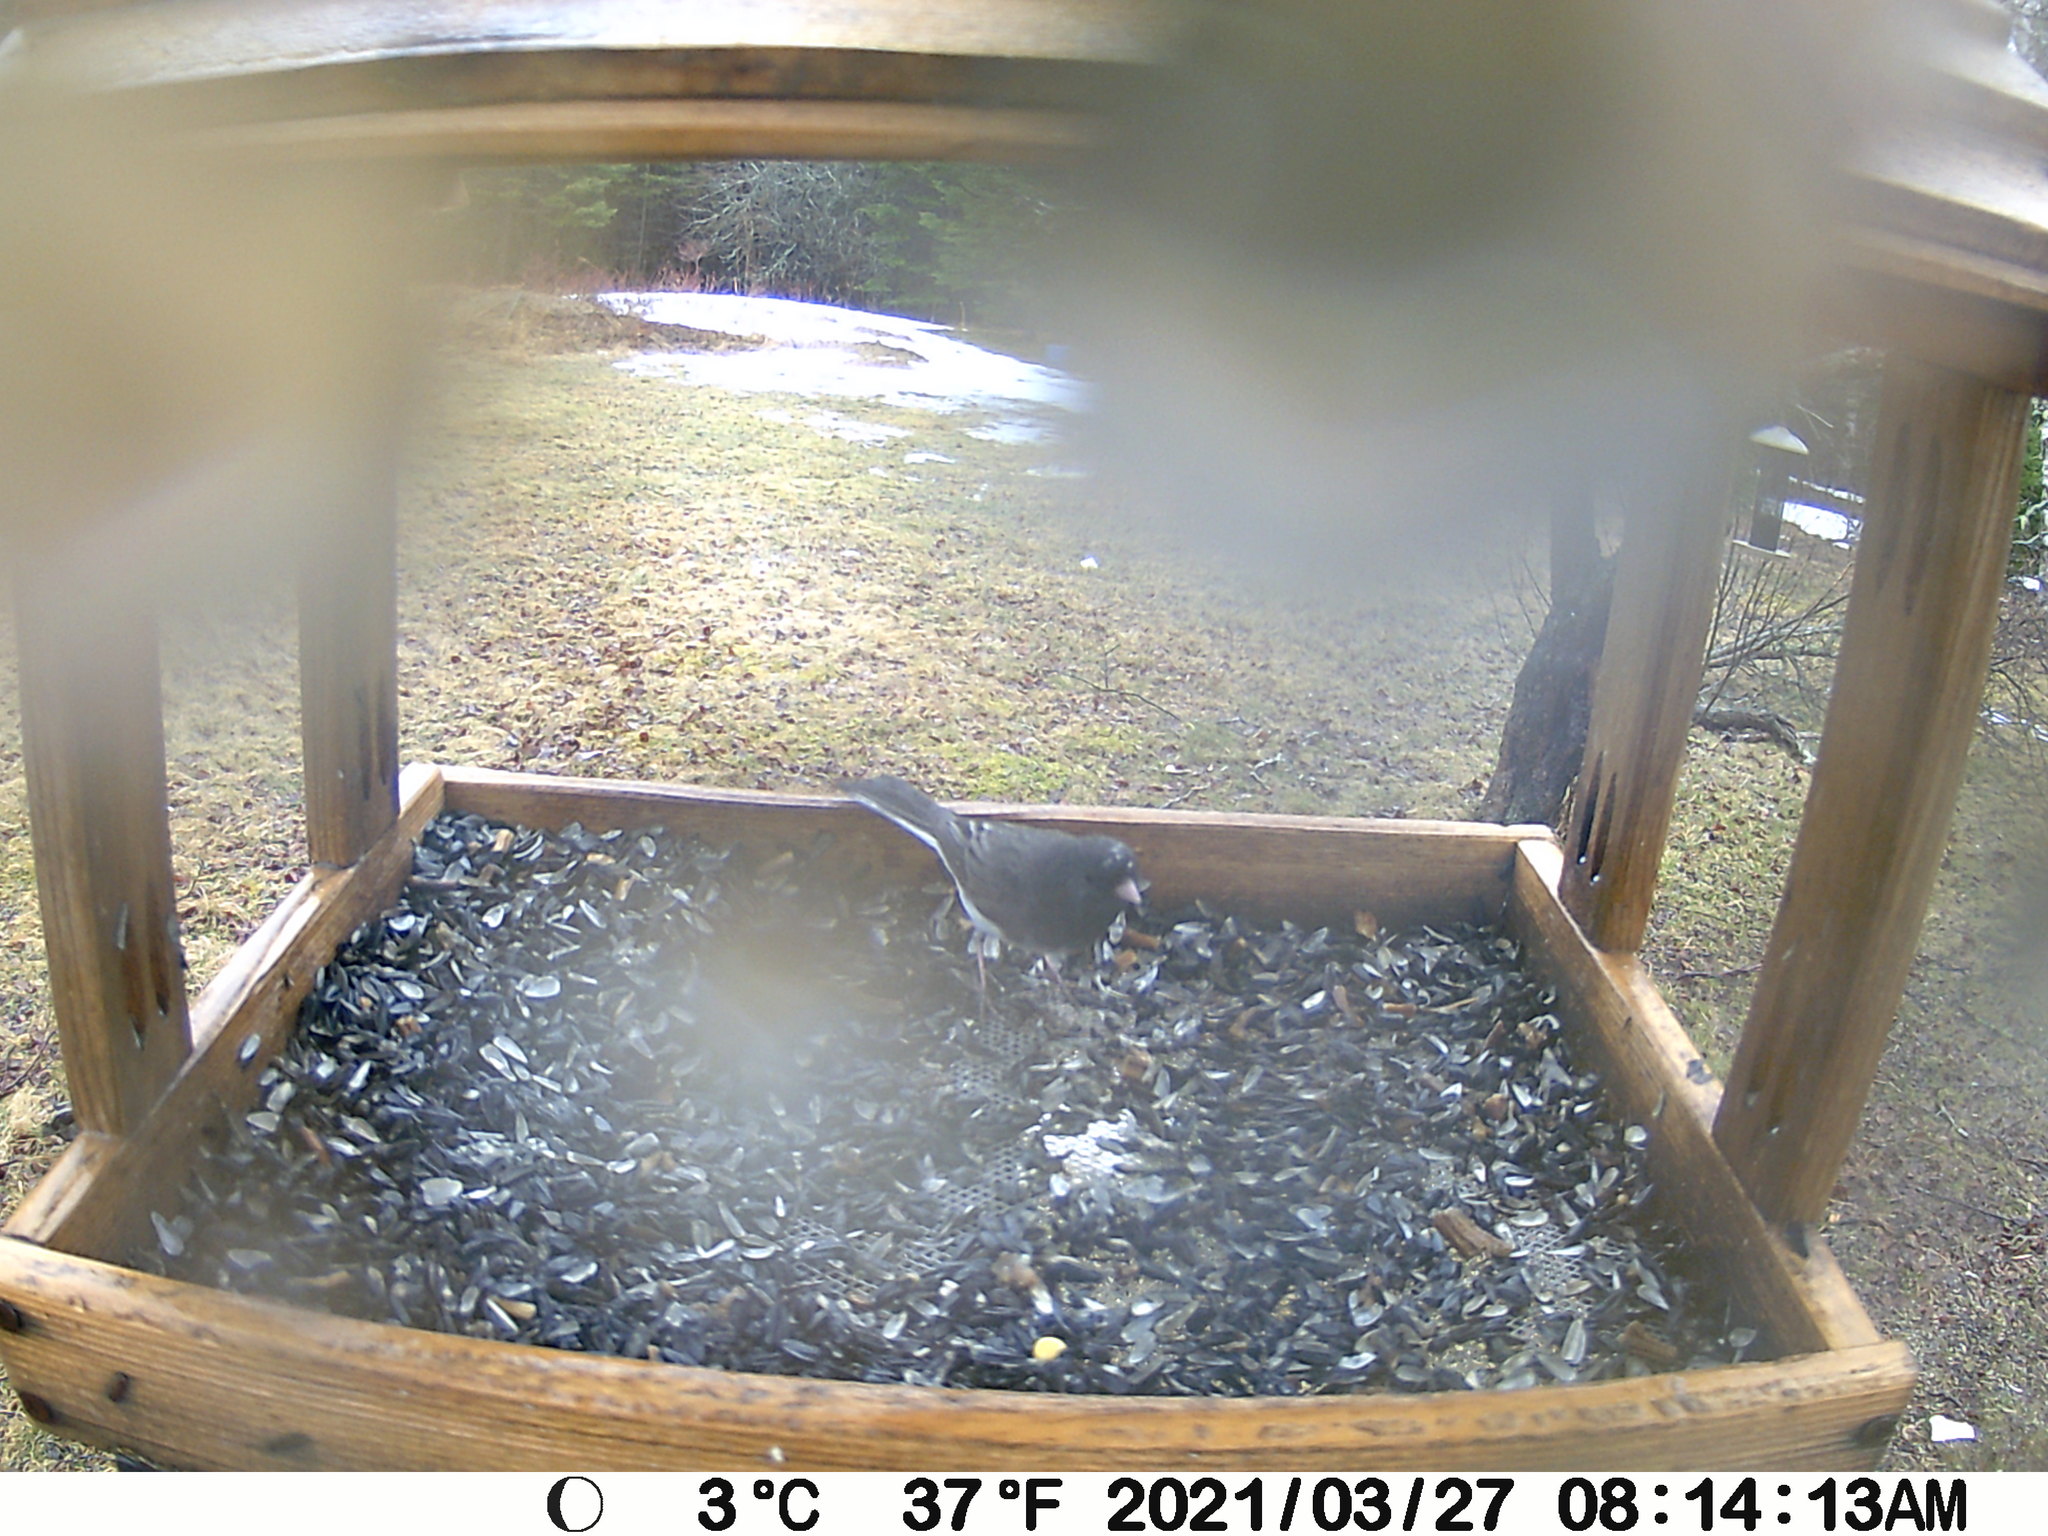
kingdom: Animalia
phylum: Chordata
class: Aves
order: Passeriformes
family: Passerellidae
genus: Junco
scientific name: Junco hyemalis
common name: Dark-eyed junco
